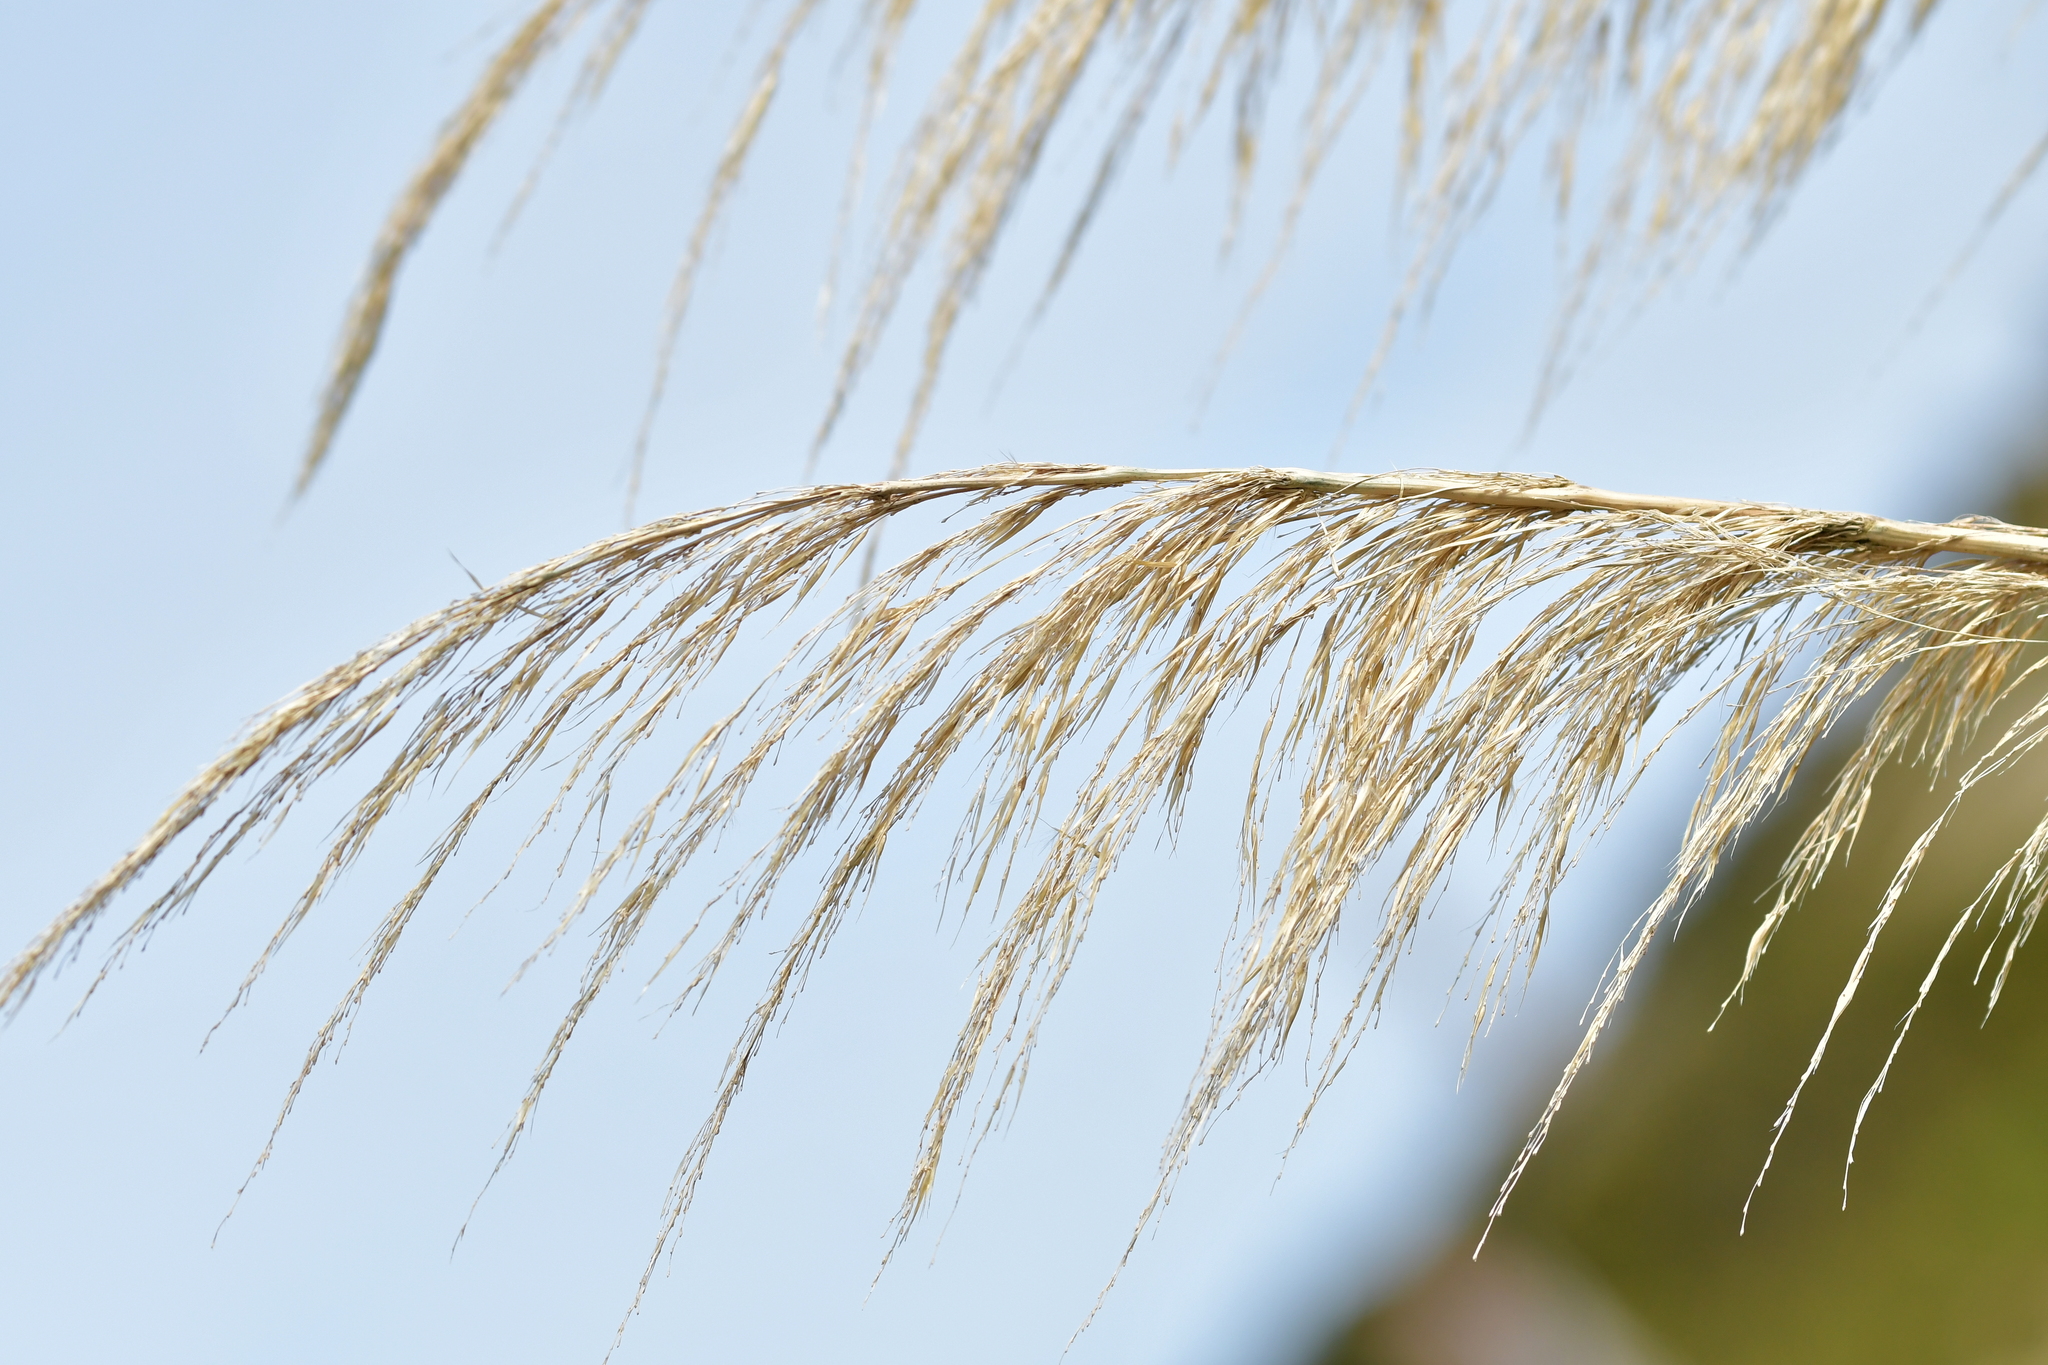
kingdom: Plantae
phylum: Tracheophyta
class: Liliopsida
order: Poales
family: Poaceae
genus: Austroderia
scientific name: Austroderia richardii
